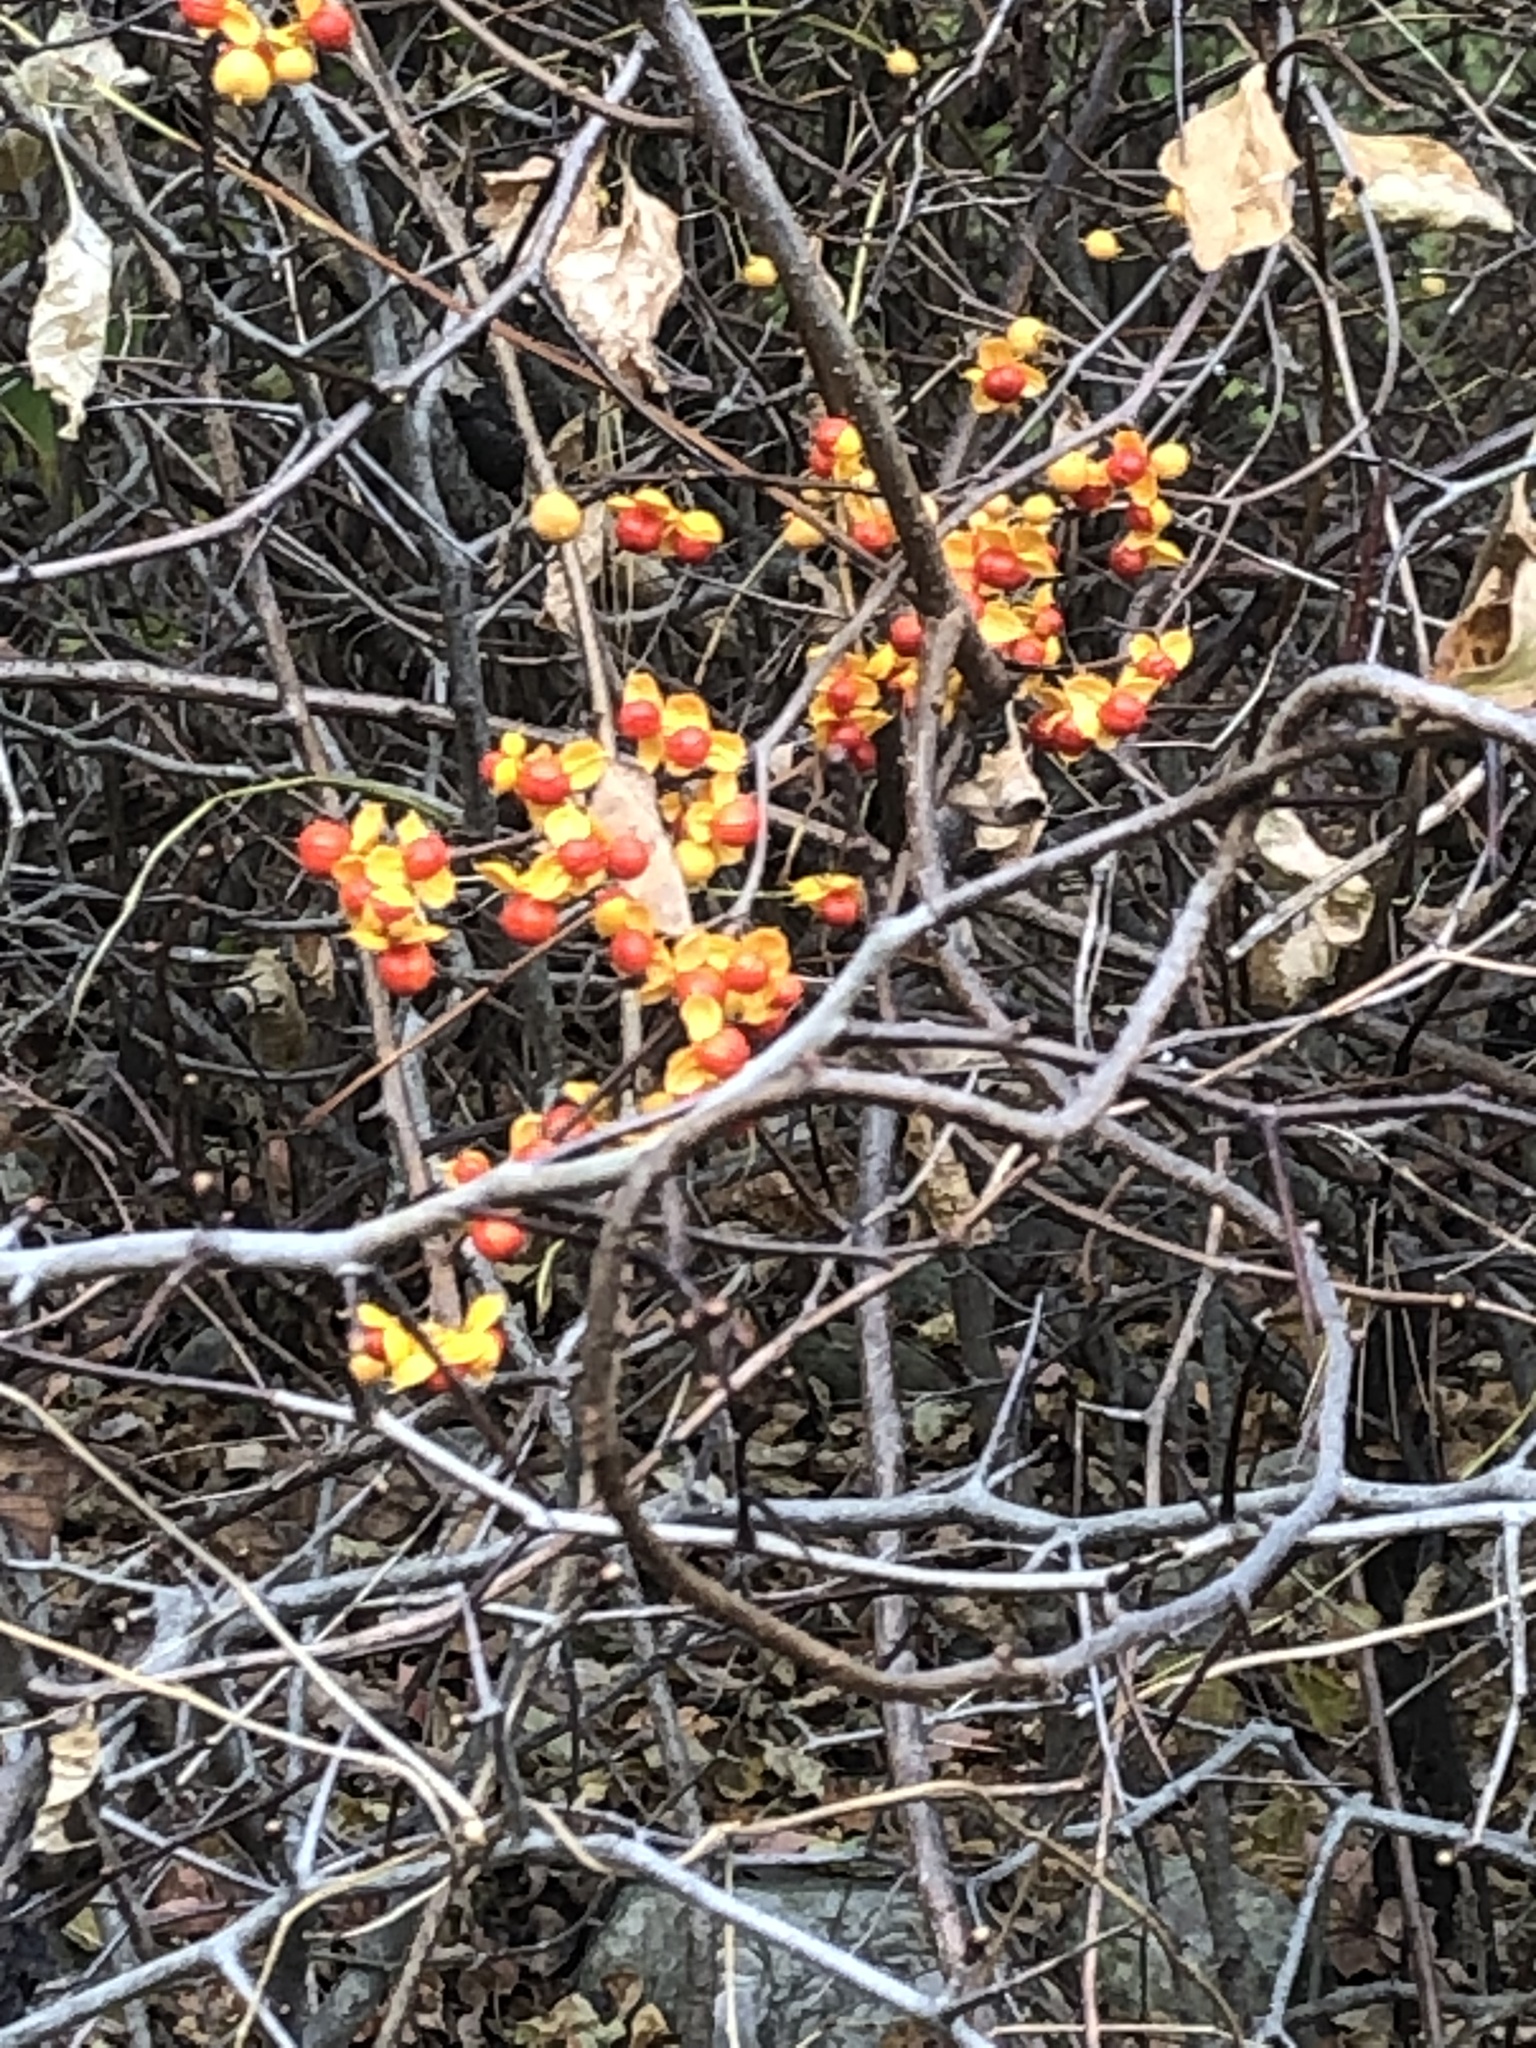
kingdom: Plantae
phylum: Tracheophyta
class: Magnoliopsida
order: Celastrales
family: Celastraceae
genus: Celastrus
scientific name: Celastrus orbiculatus
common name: Oriental bittersweet
